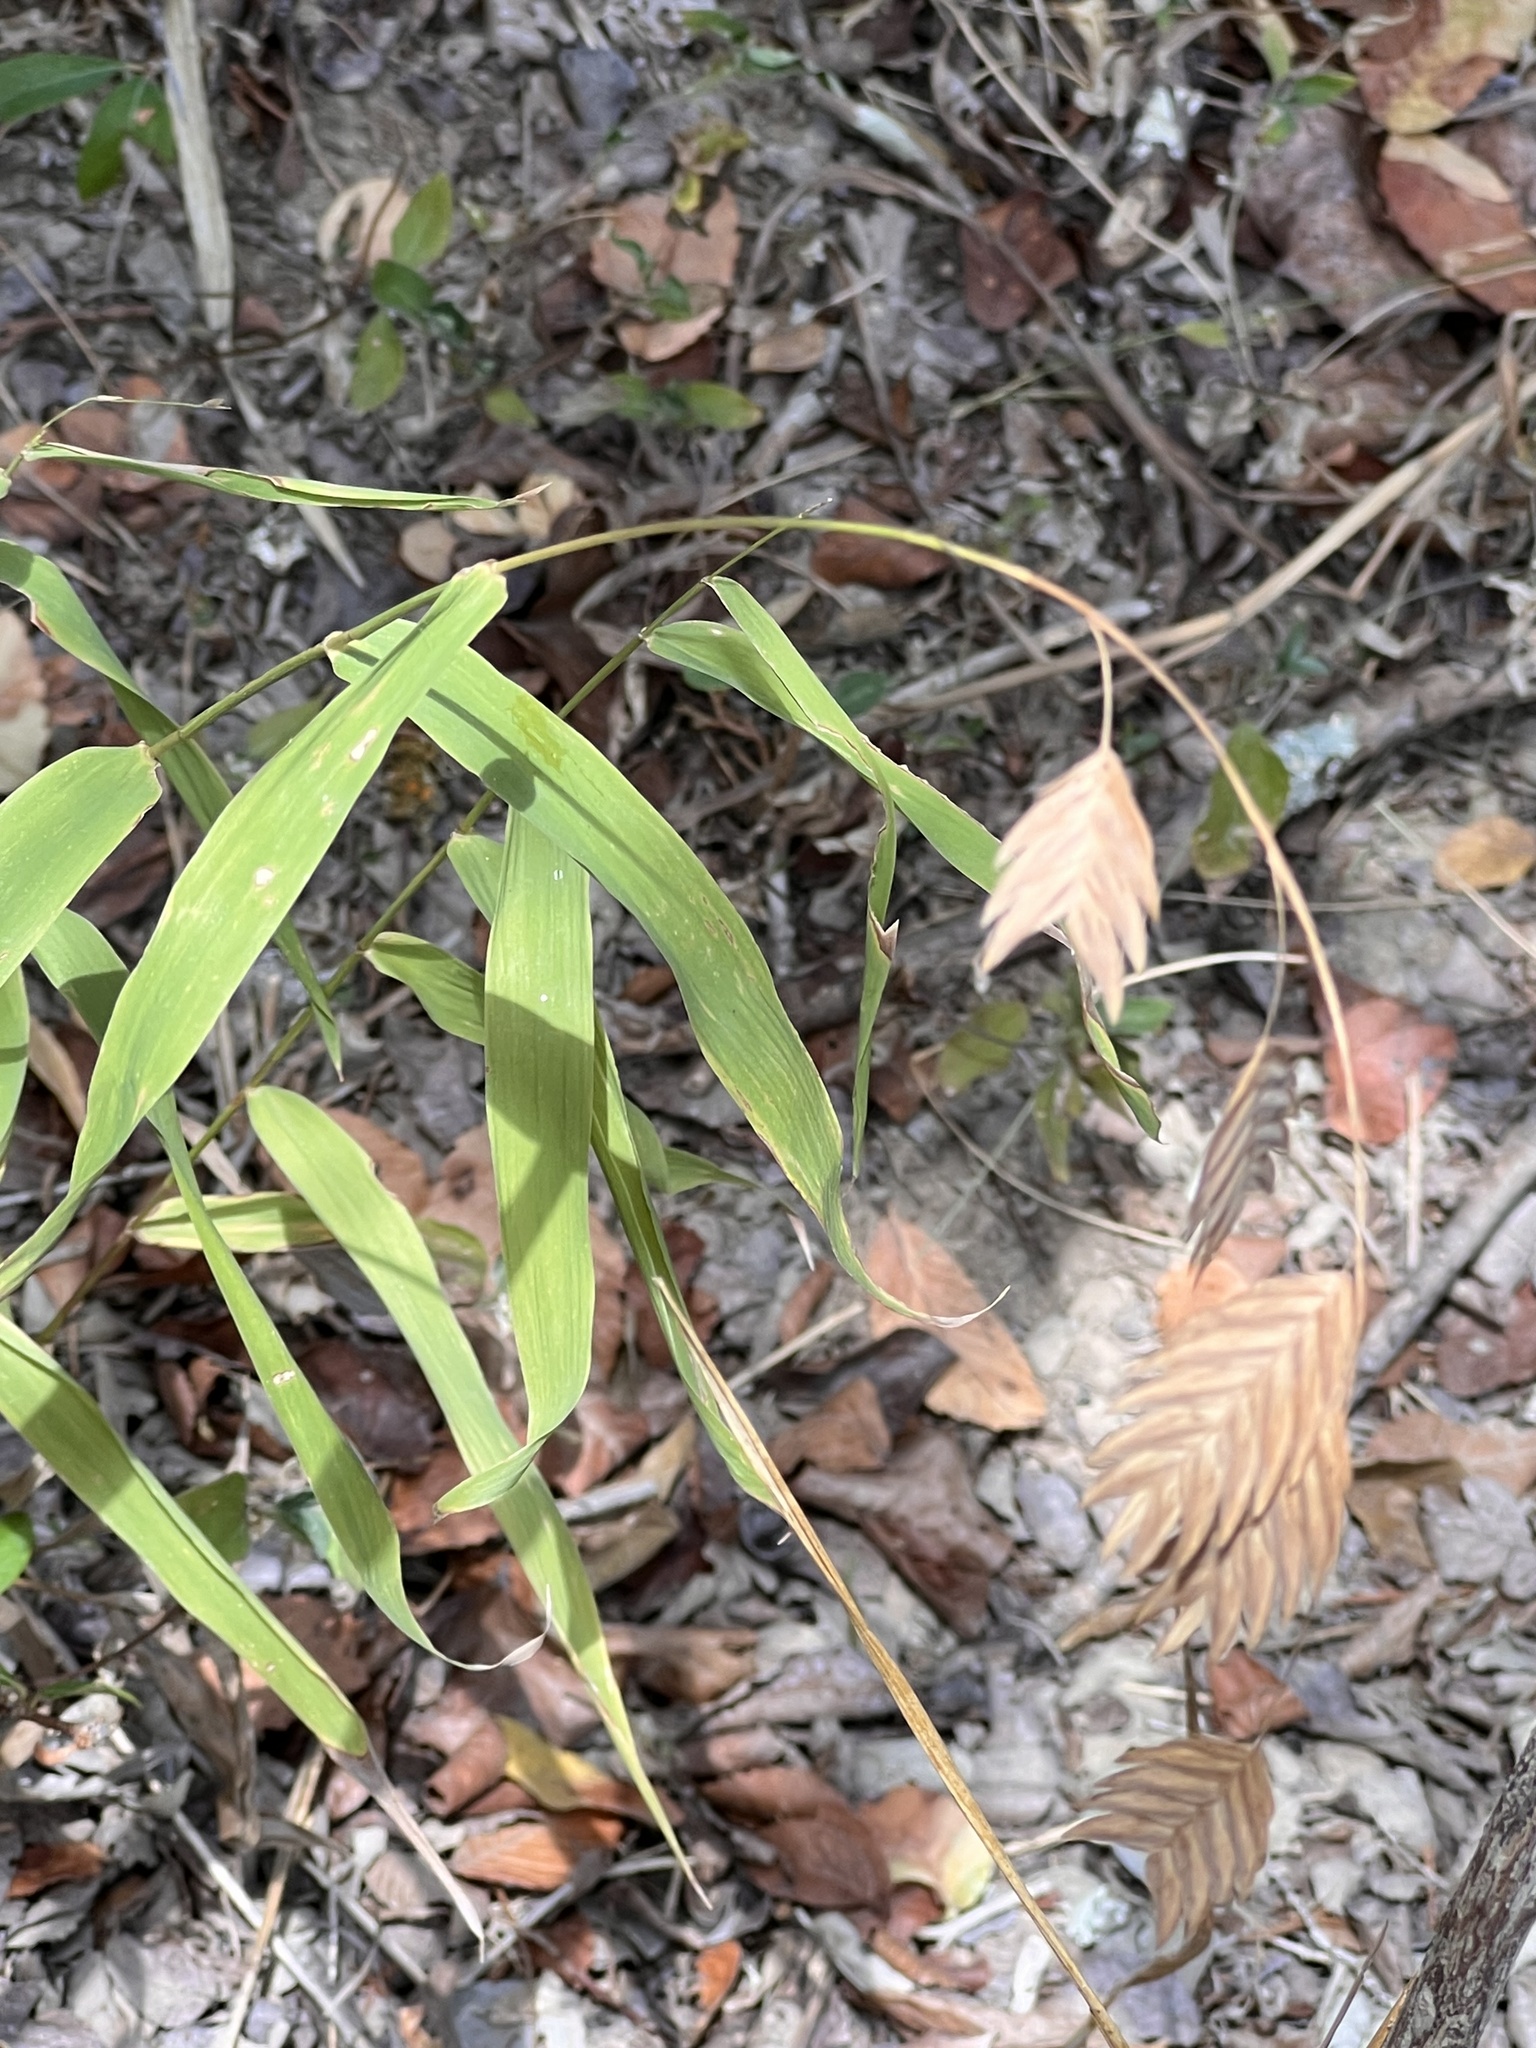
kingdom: Plantae
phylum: Tracheophyta
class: Liliopsida
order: Poales
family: Poaceae
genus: Chasmanthium
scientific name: Chasmanthium latifolium
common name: Broad-leaved chasmanthium
